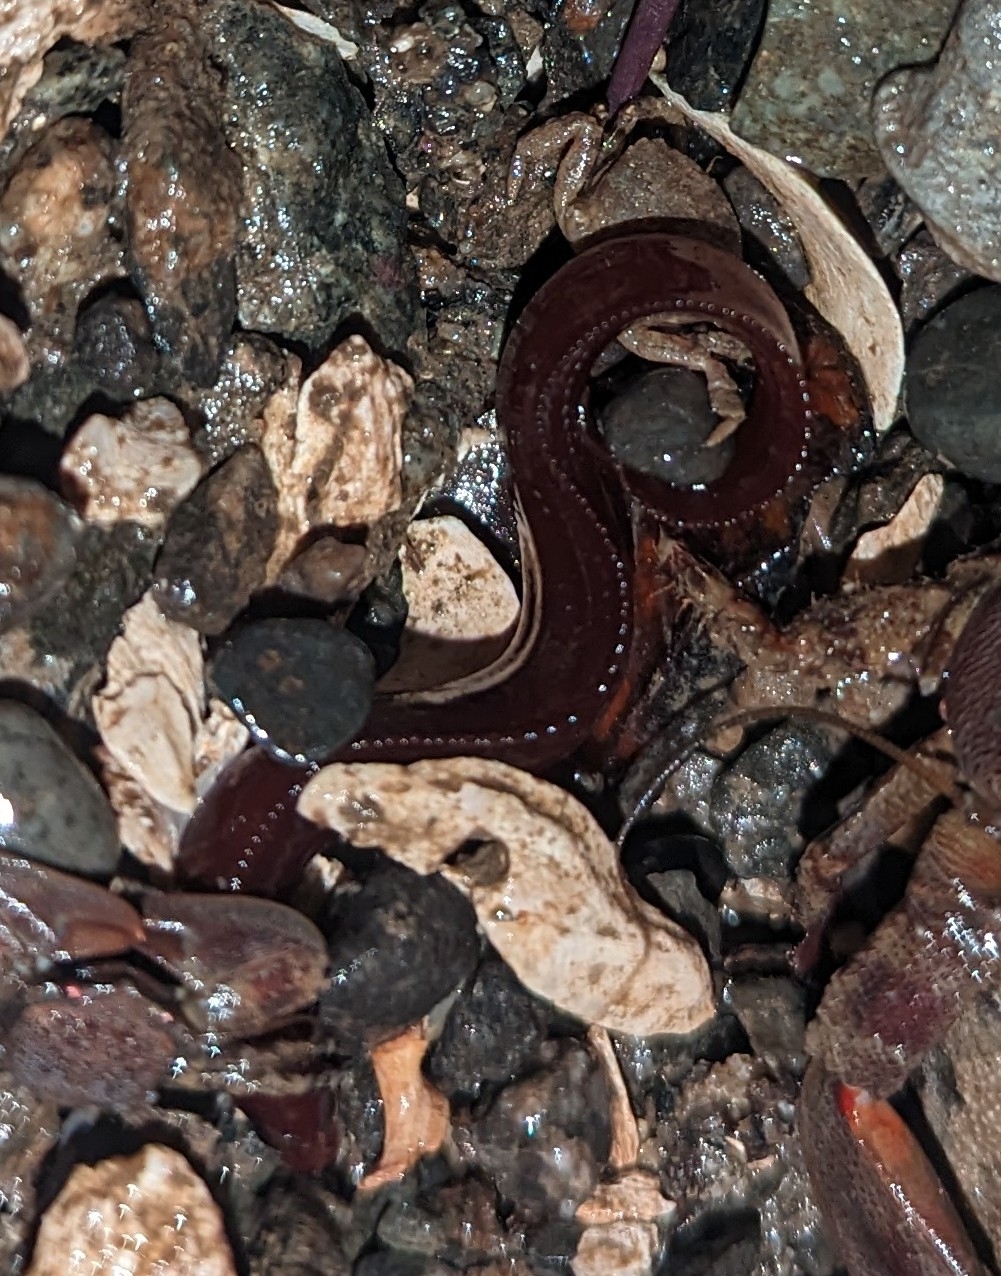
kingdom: Animalia
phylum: Chordata
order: Perciformes
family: Stichaeidae
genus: Phytichthys
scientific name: Phytichthys chirus
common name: Ribbon prickleback
